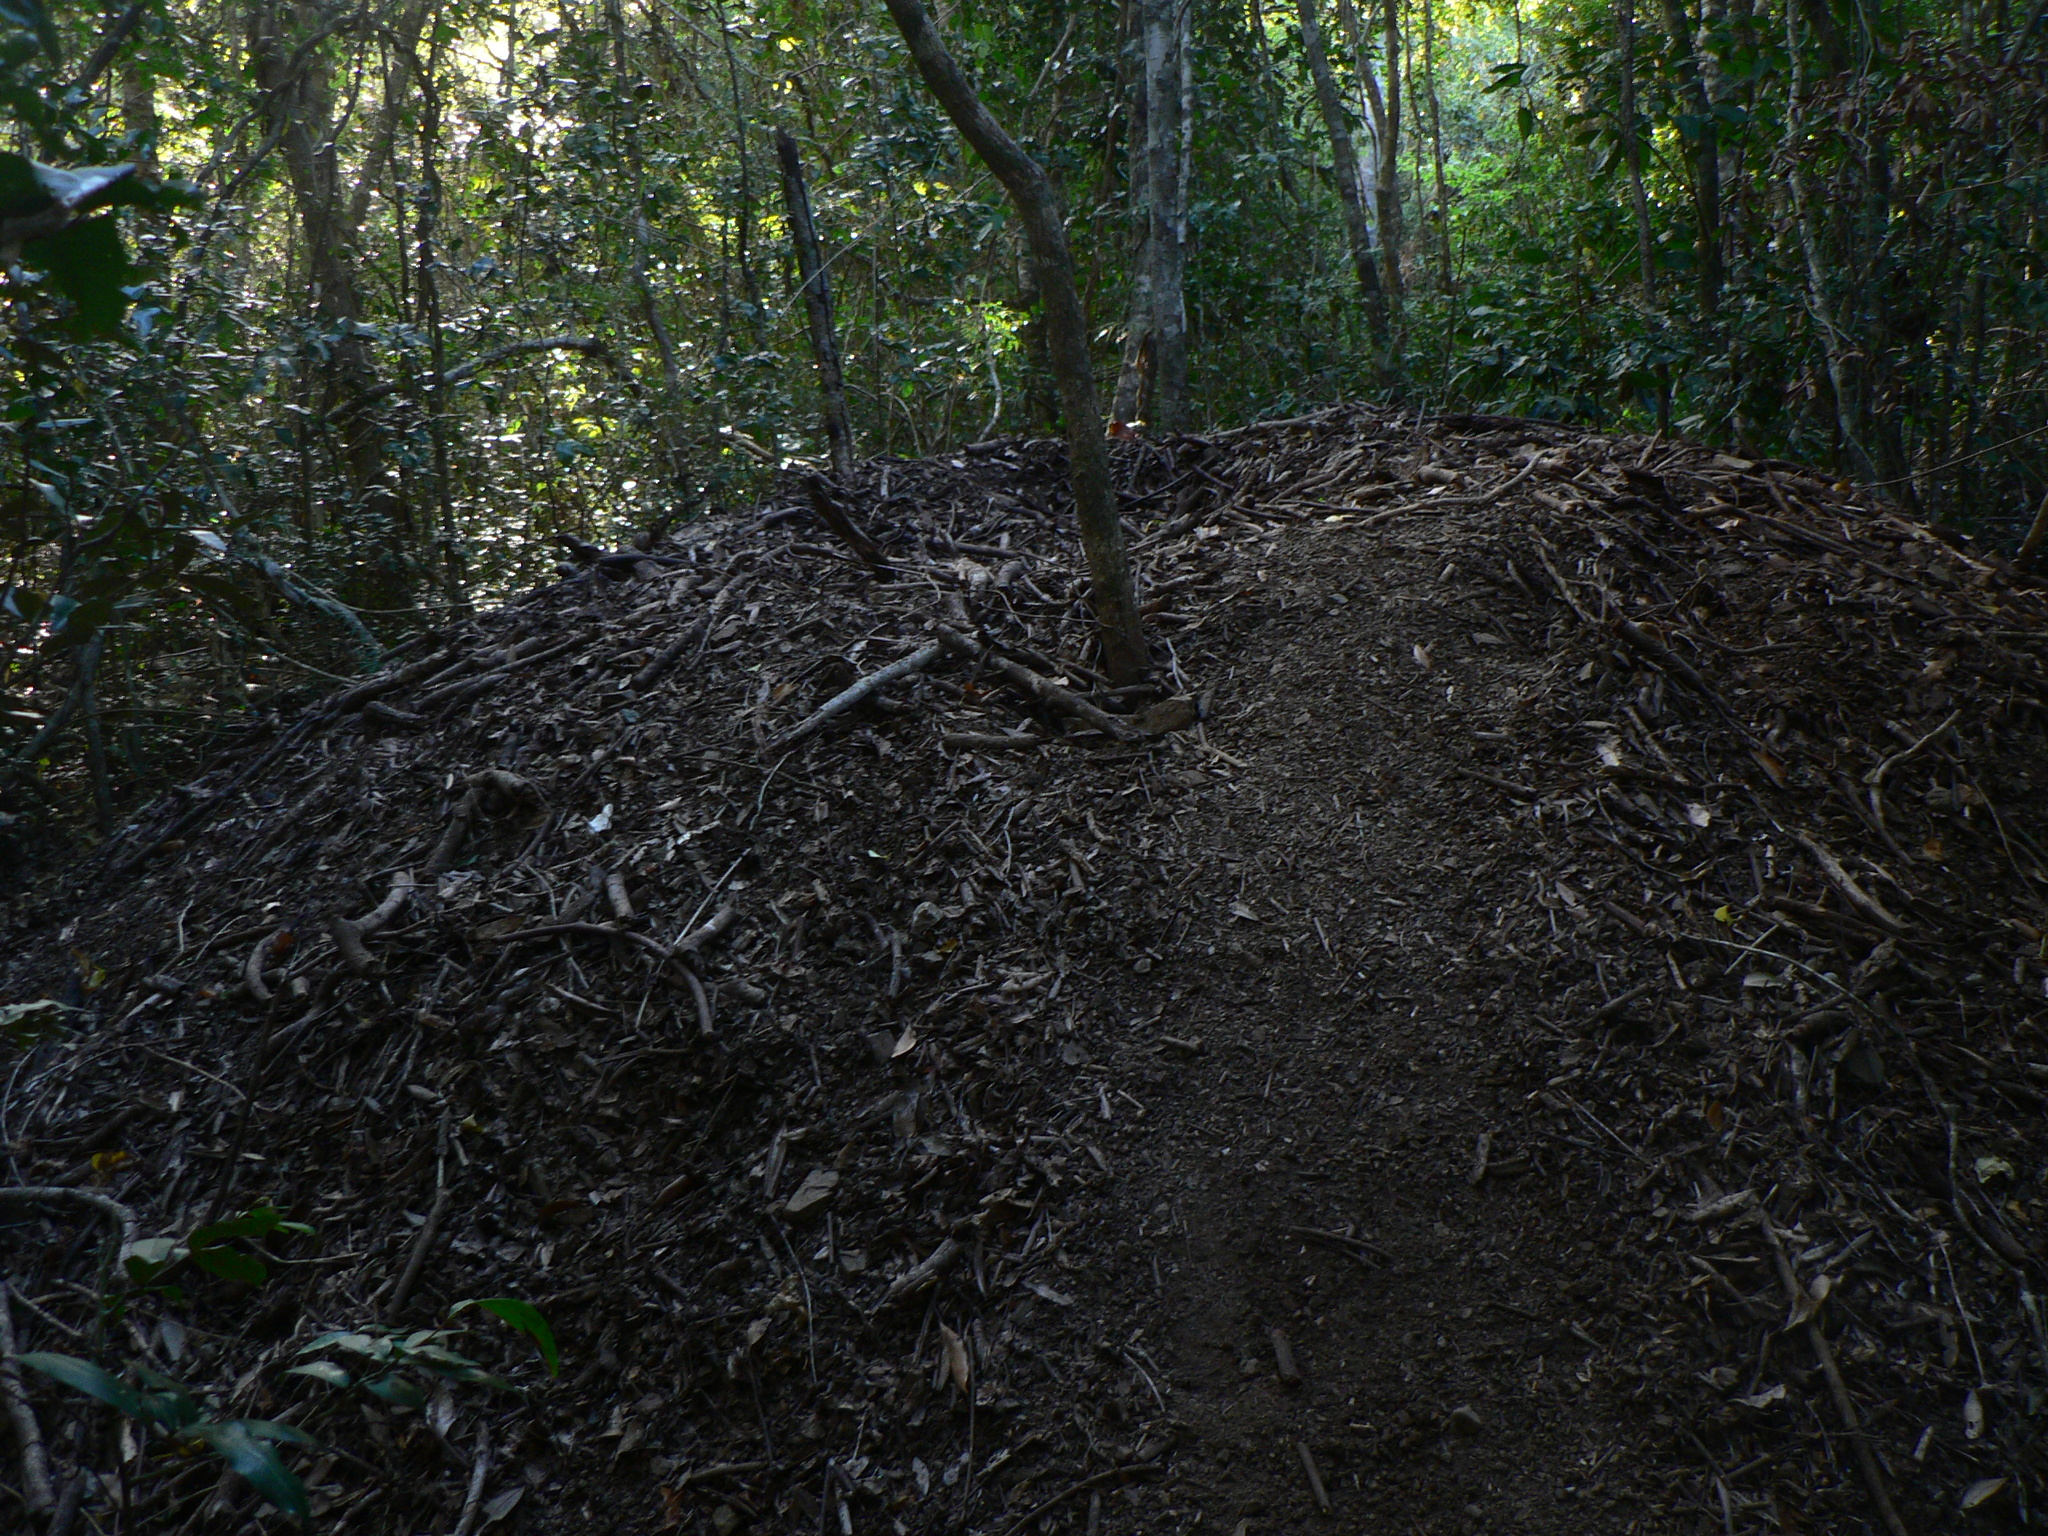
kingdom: Animalia
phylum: Chordata
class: Aves
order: Galliformes
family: Megapodiidae
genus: Alectura
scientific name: Alectura lathami
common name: Australian brushturkey
